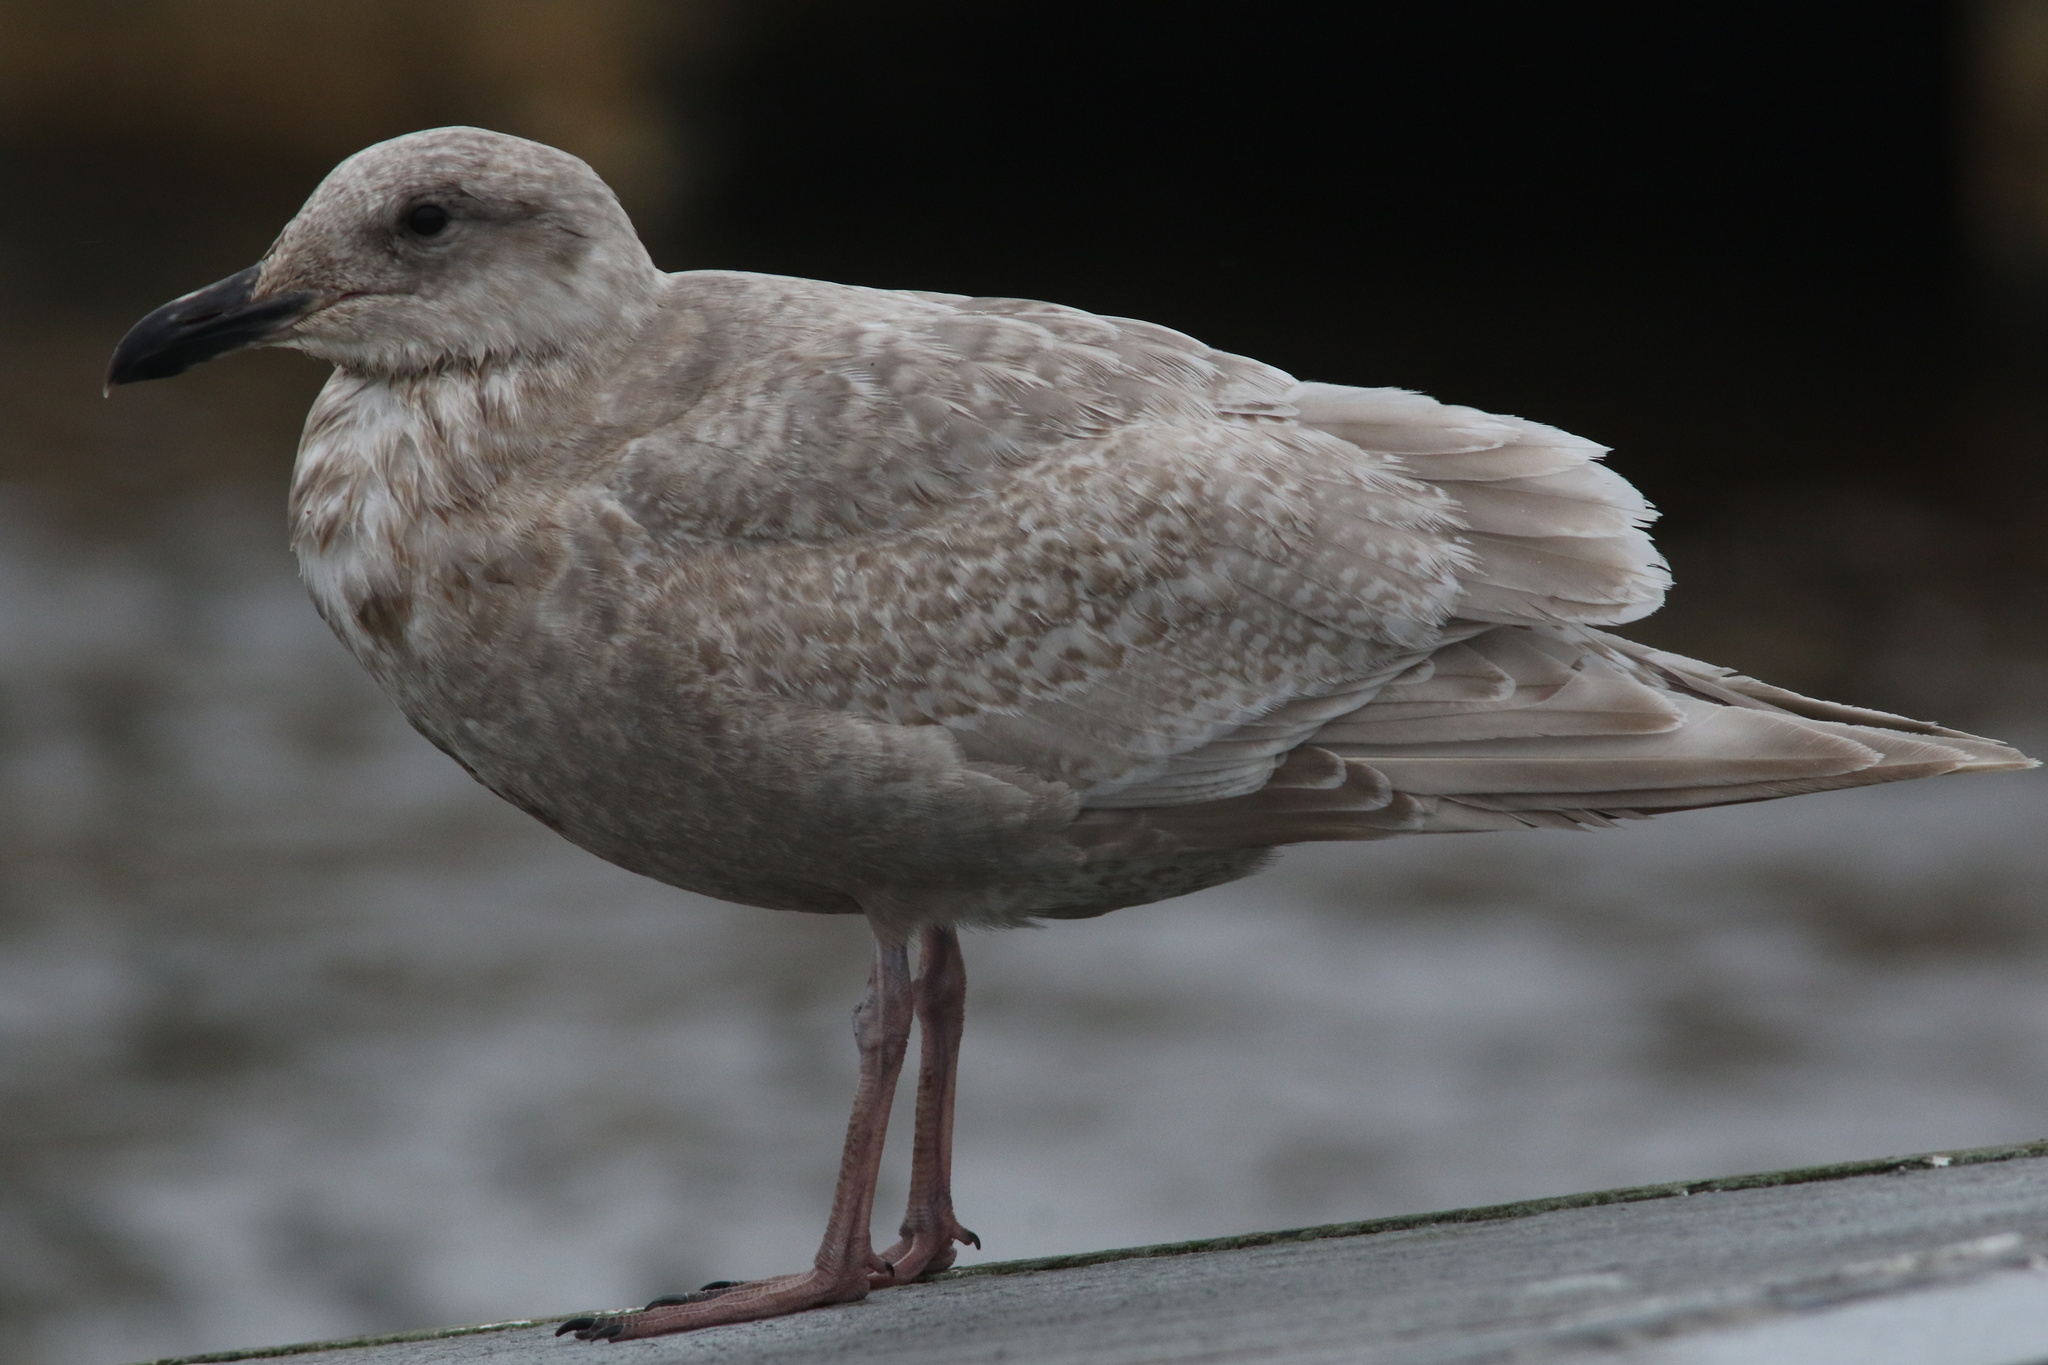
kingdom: Animalia
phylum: Chordata
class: Aves
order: Charadriiformes
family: Laridae
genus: Larus
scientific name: Larus glaucescens
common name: Glaucous-winged gull
